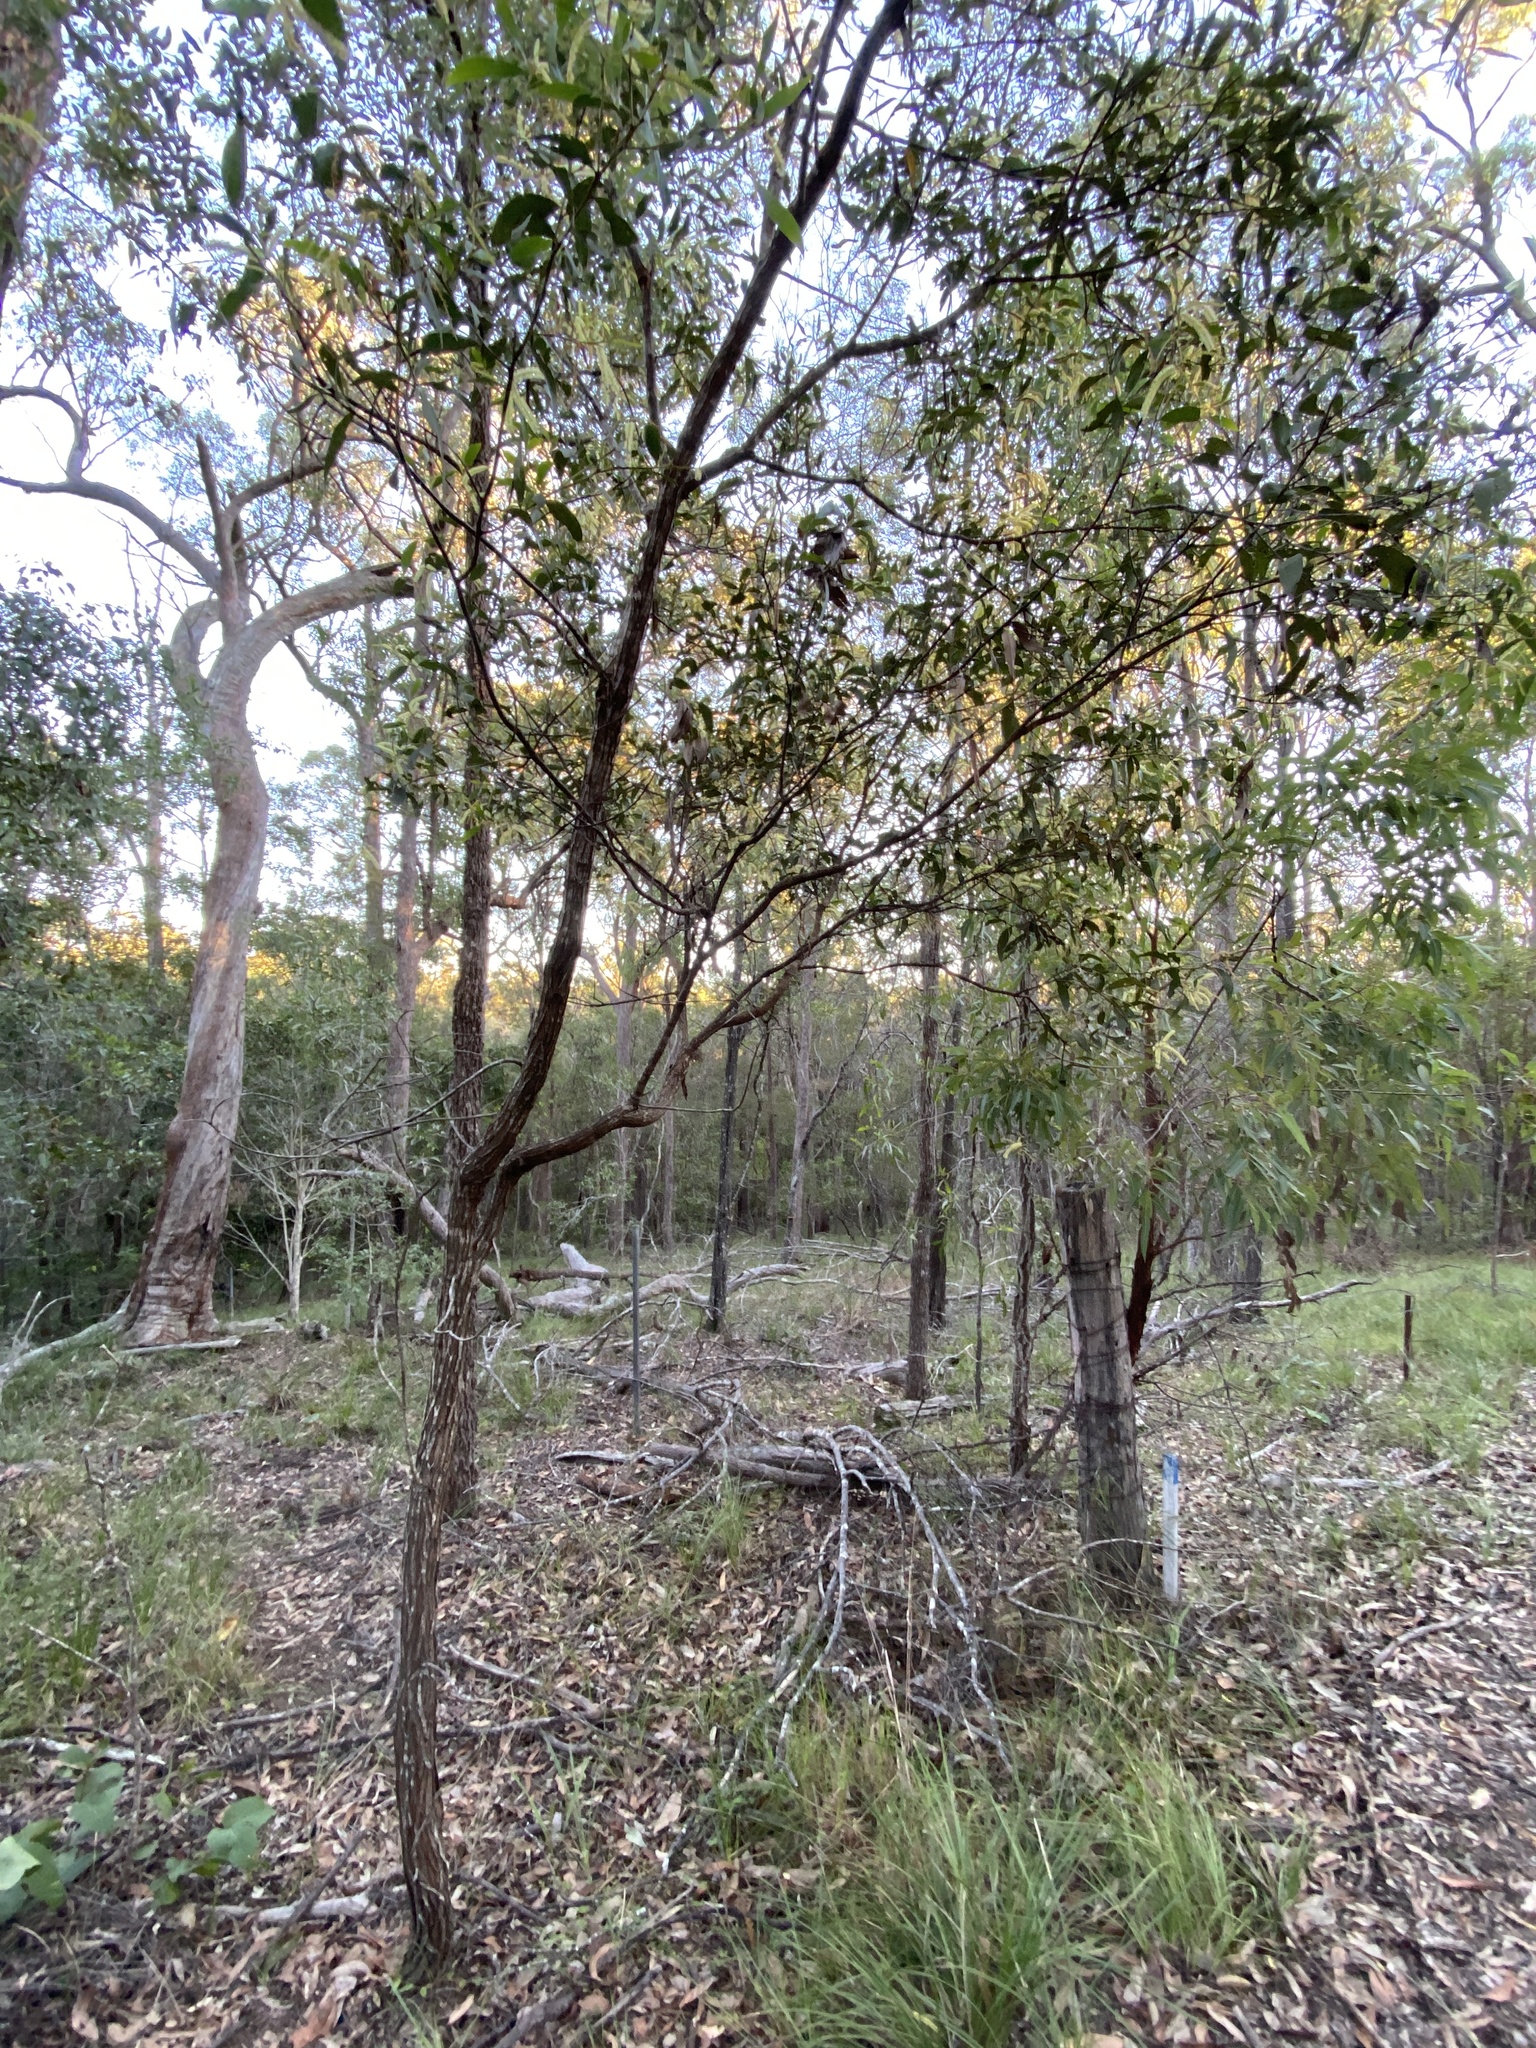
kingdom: Plantae
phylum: Tracheophyta
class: Magnoliopsida
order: Fabales
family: Fabaceae
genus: Acacia
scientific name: Acacia leiocalyx
